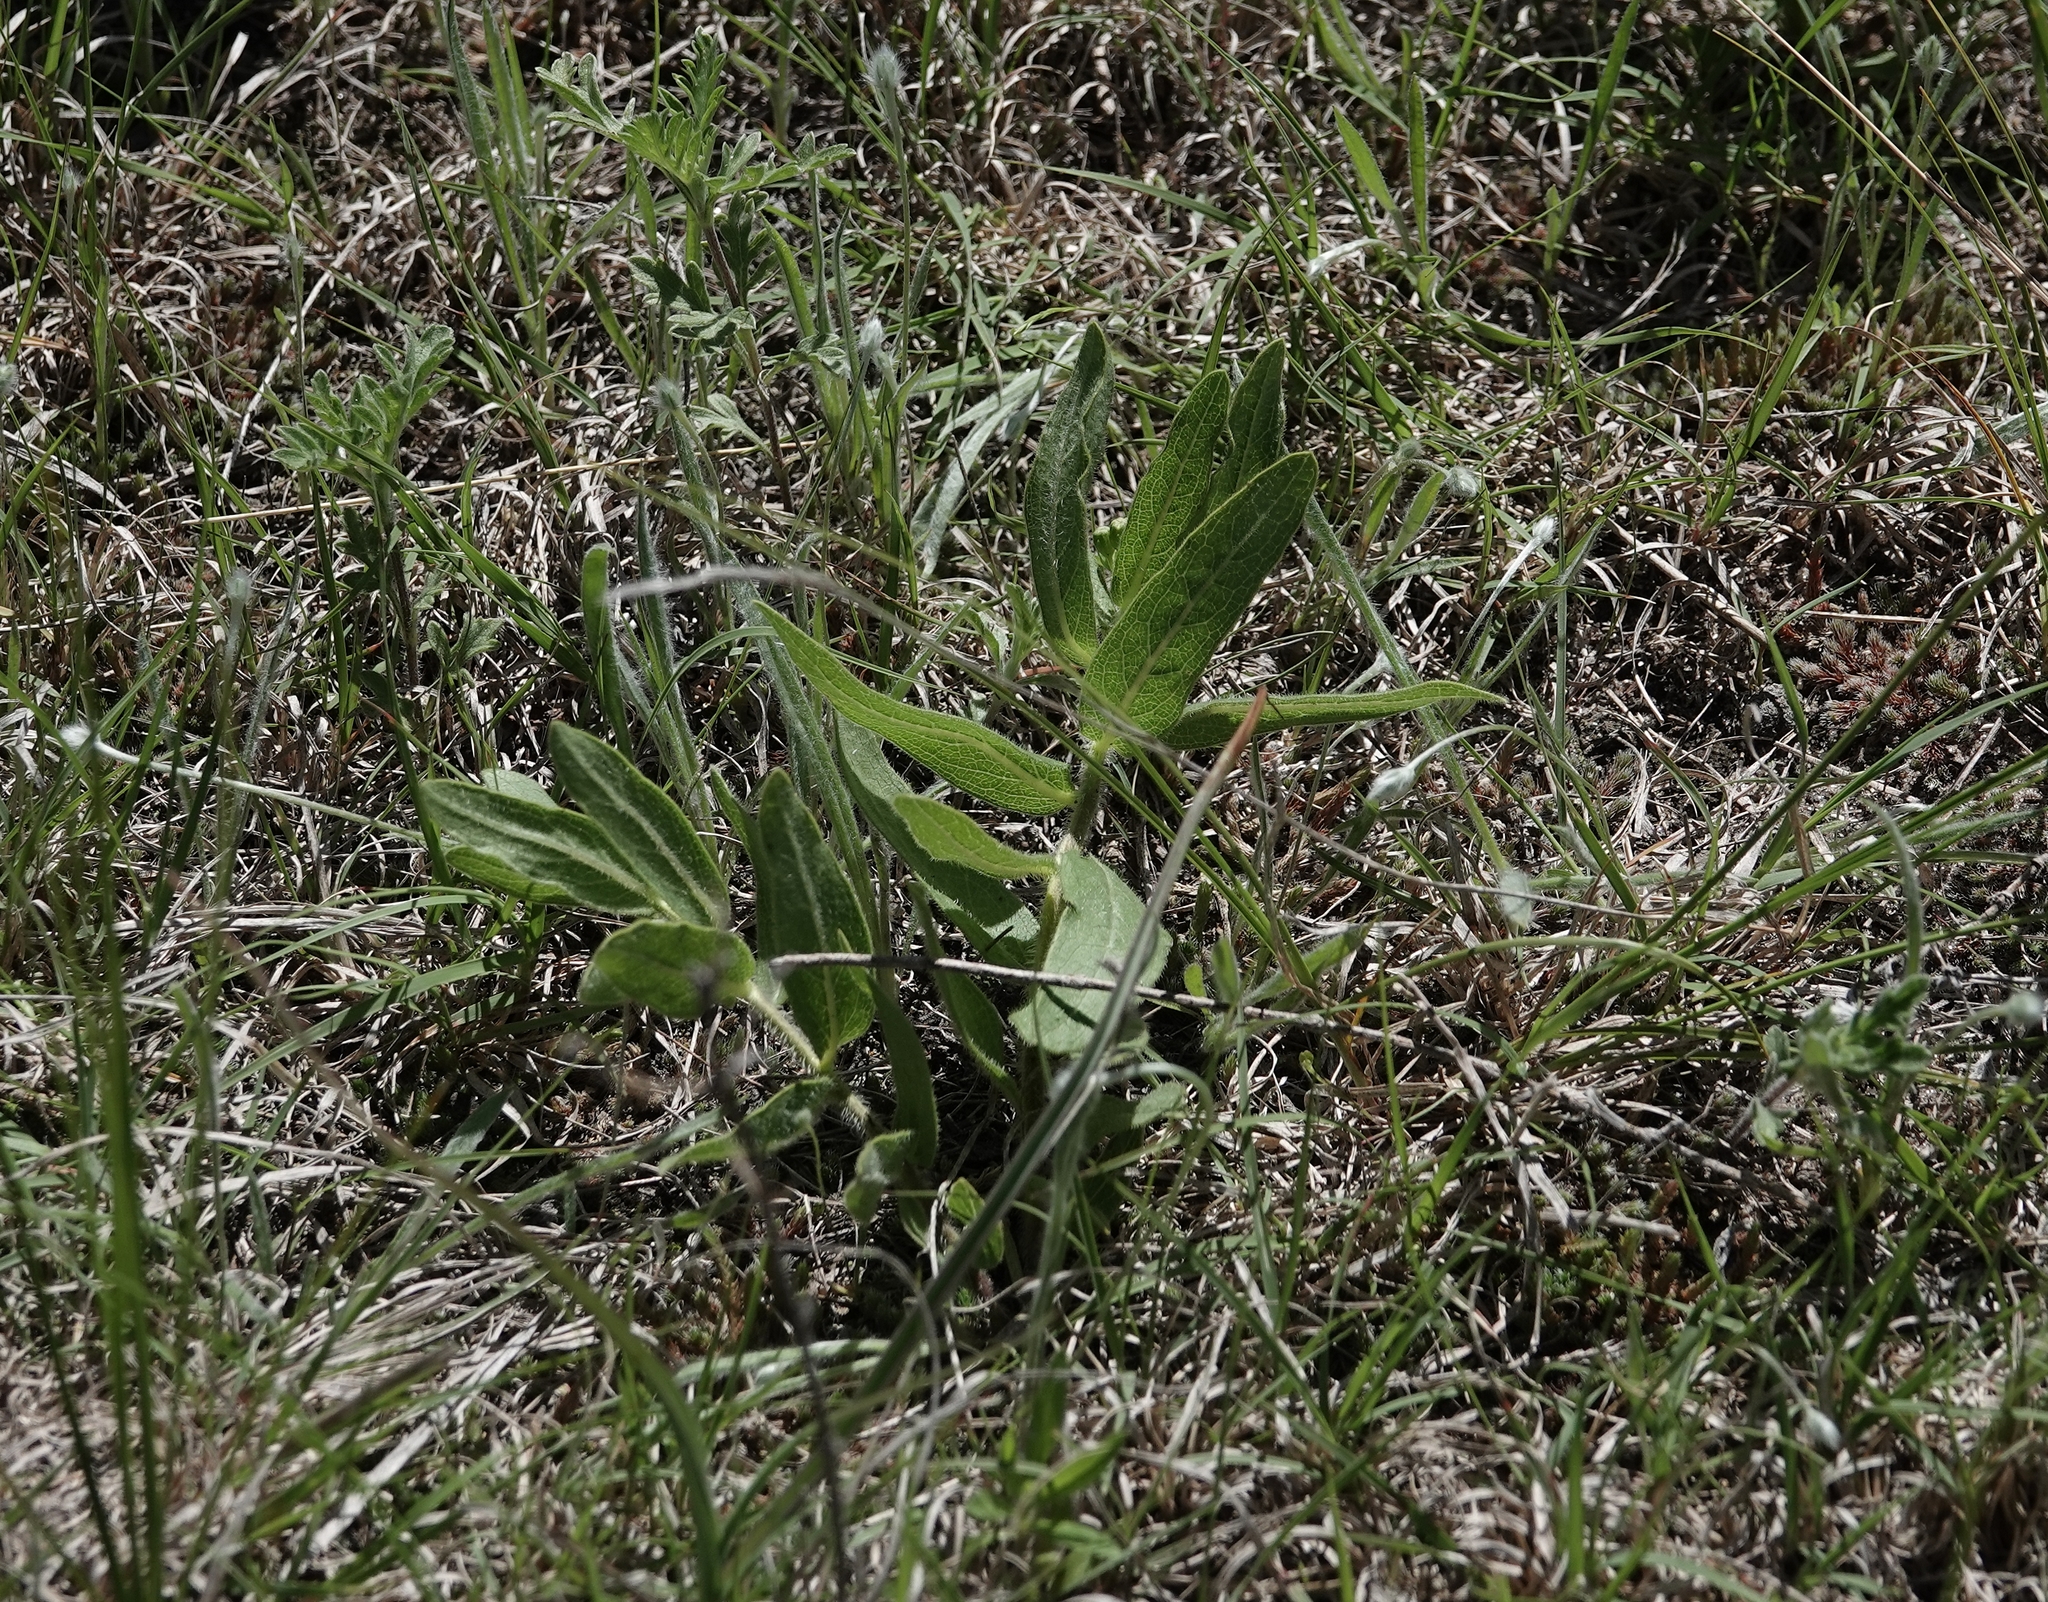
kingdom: Plantae
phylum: Tracheophyta
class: Magnoliopsida
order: Gentianales
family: Apocynaceae
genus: Asclepias
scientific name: Asclepias lanuginosa
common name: Side-cluster milkweed
